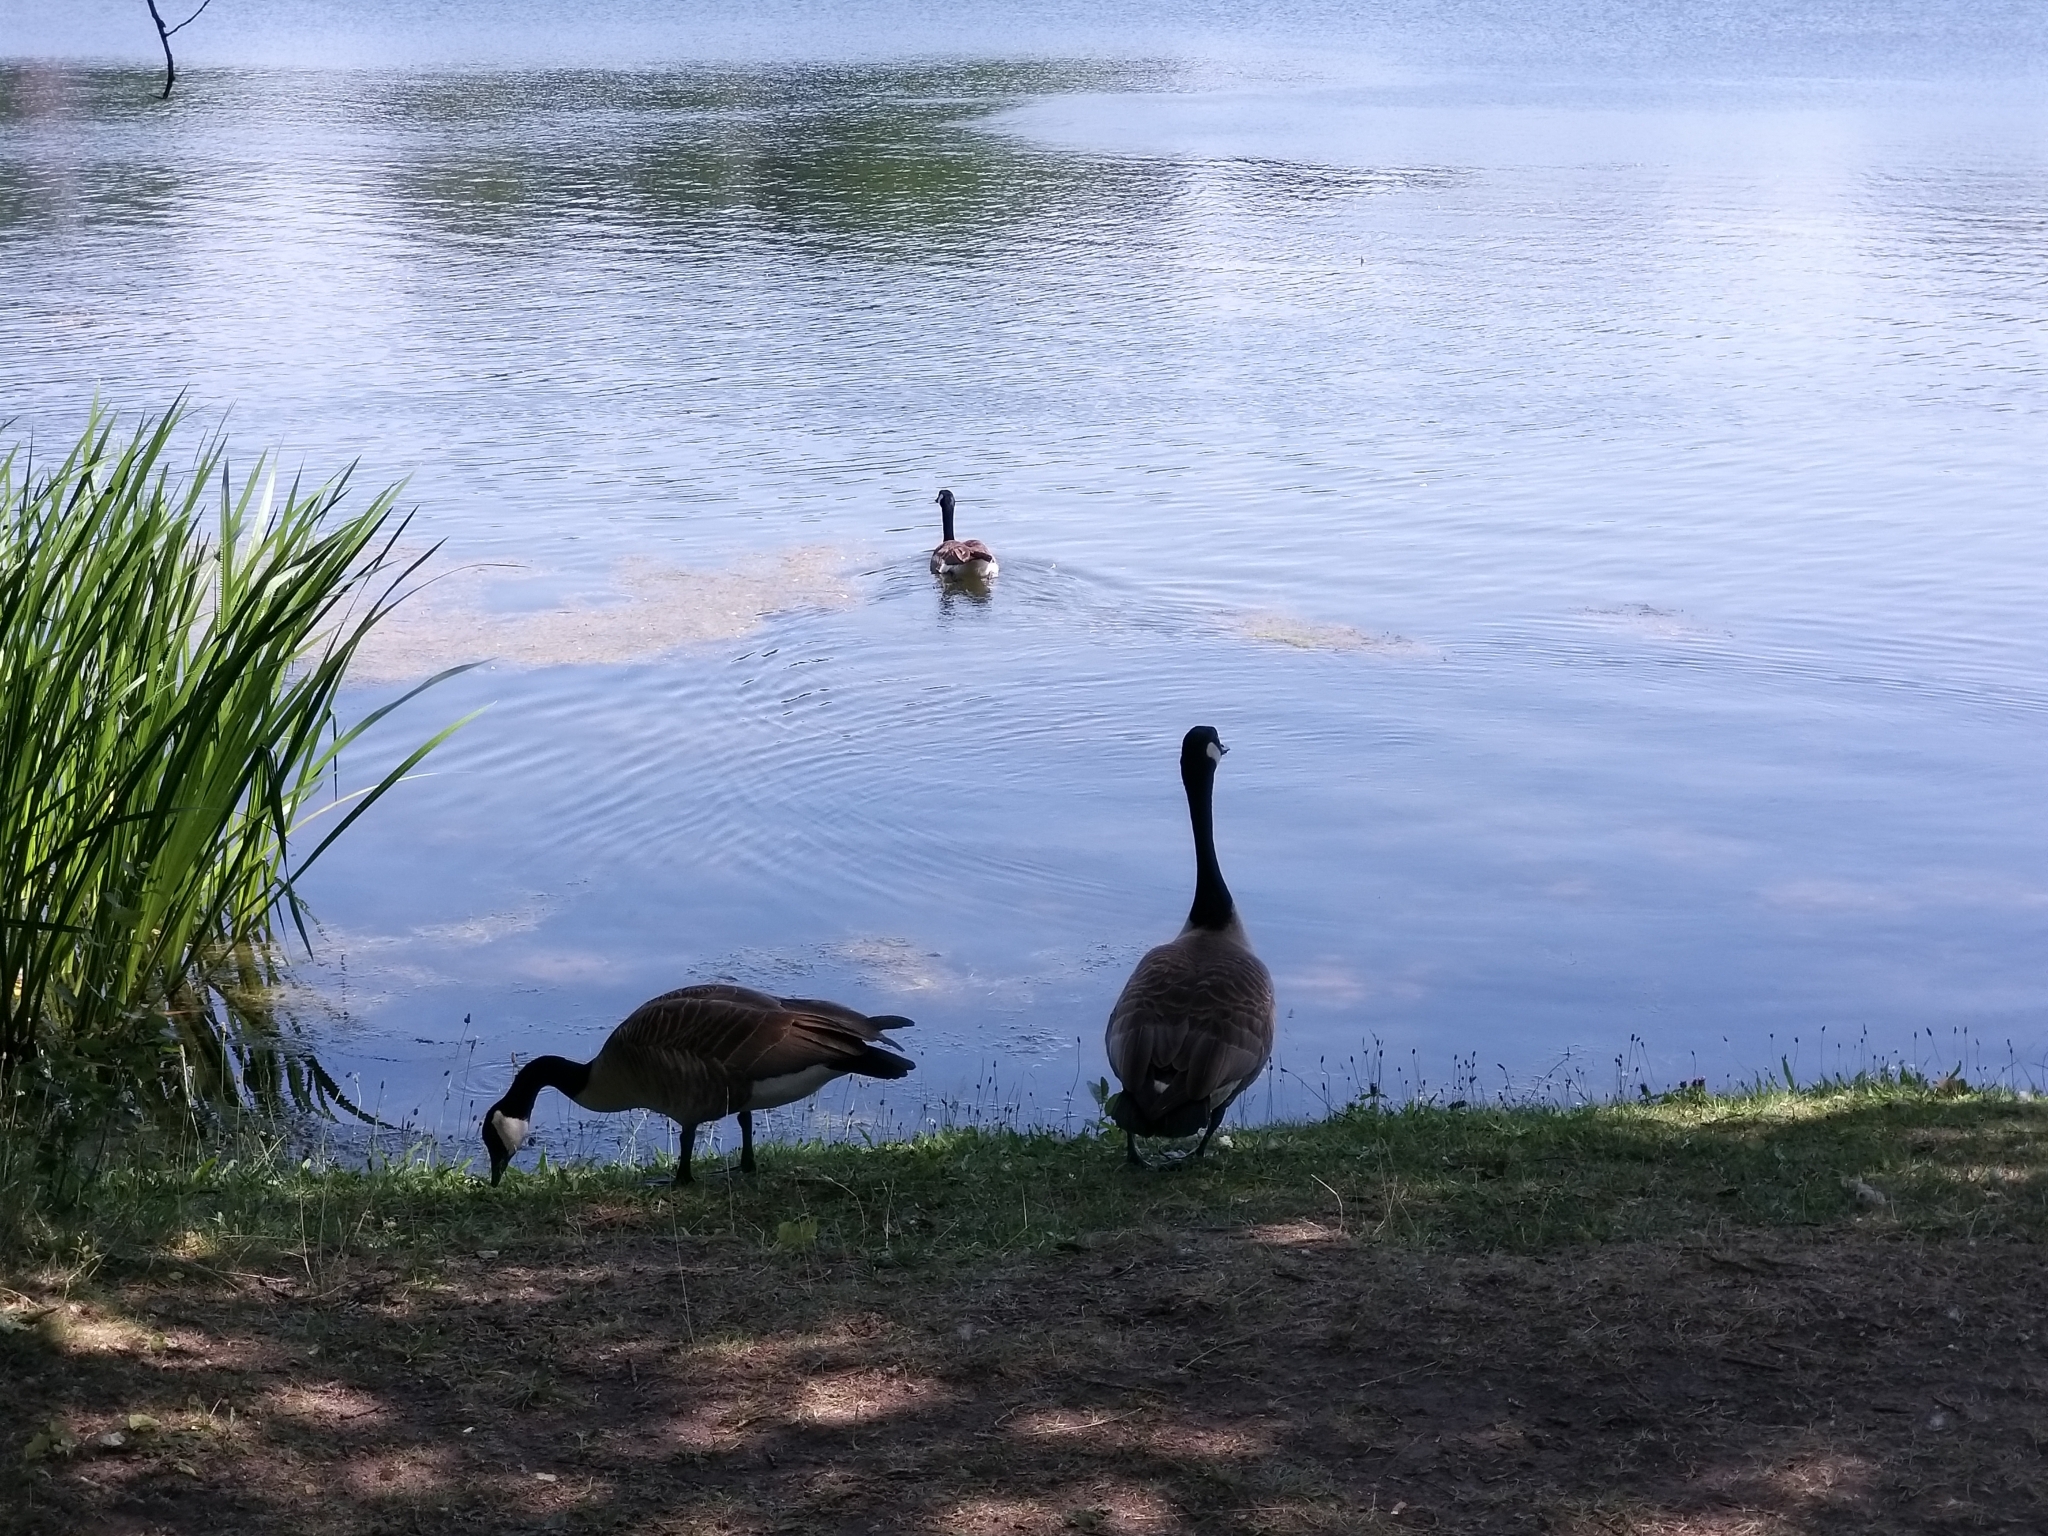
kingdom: Animalia
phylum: Chordata
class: Aves
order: Anseriformes
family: Anatidae
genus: Branta
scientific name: Branta canadensis
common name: Canada goose
